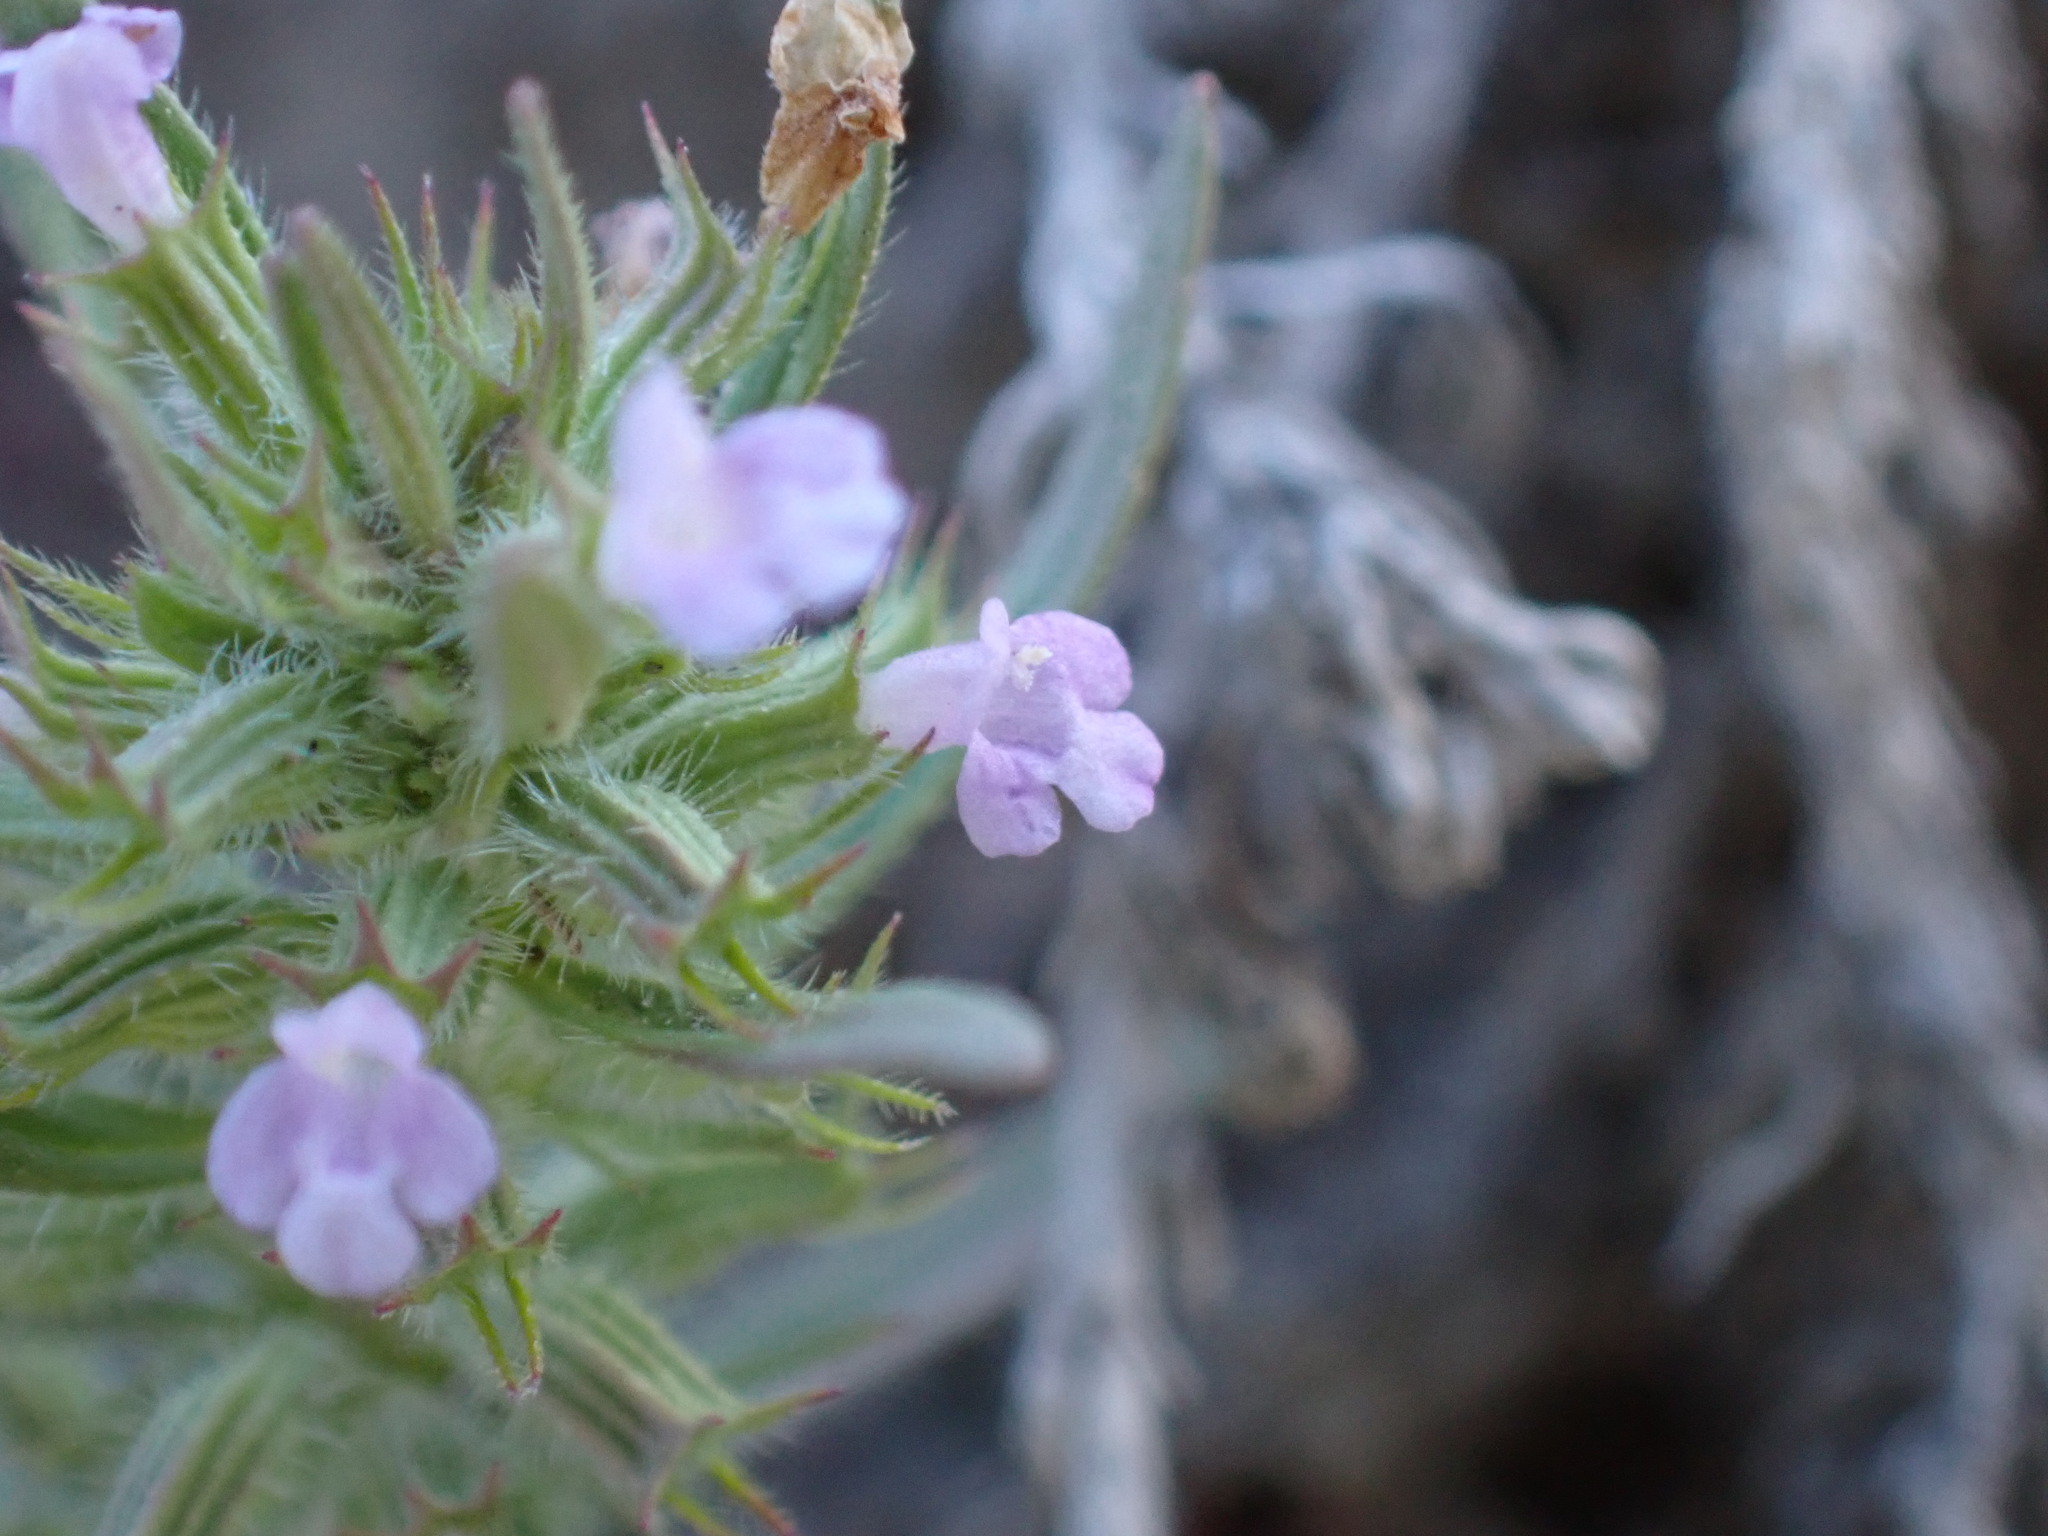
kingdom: Plantae
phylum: Tracheophyta
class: Magnoliopsida
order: Lamiales
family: Lamiaceae
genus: Hedeoma
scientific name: Hedeoma hispida
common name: Mock pennyroyal
